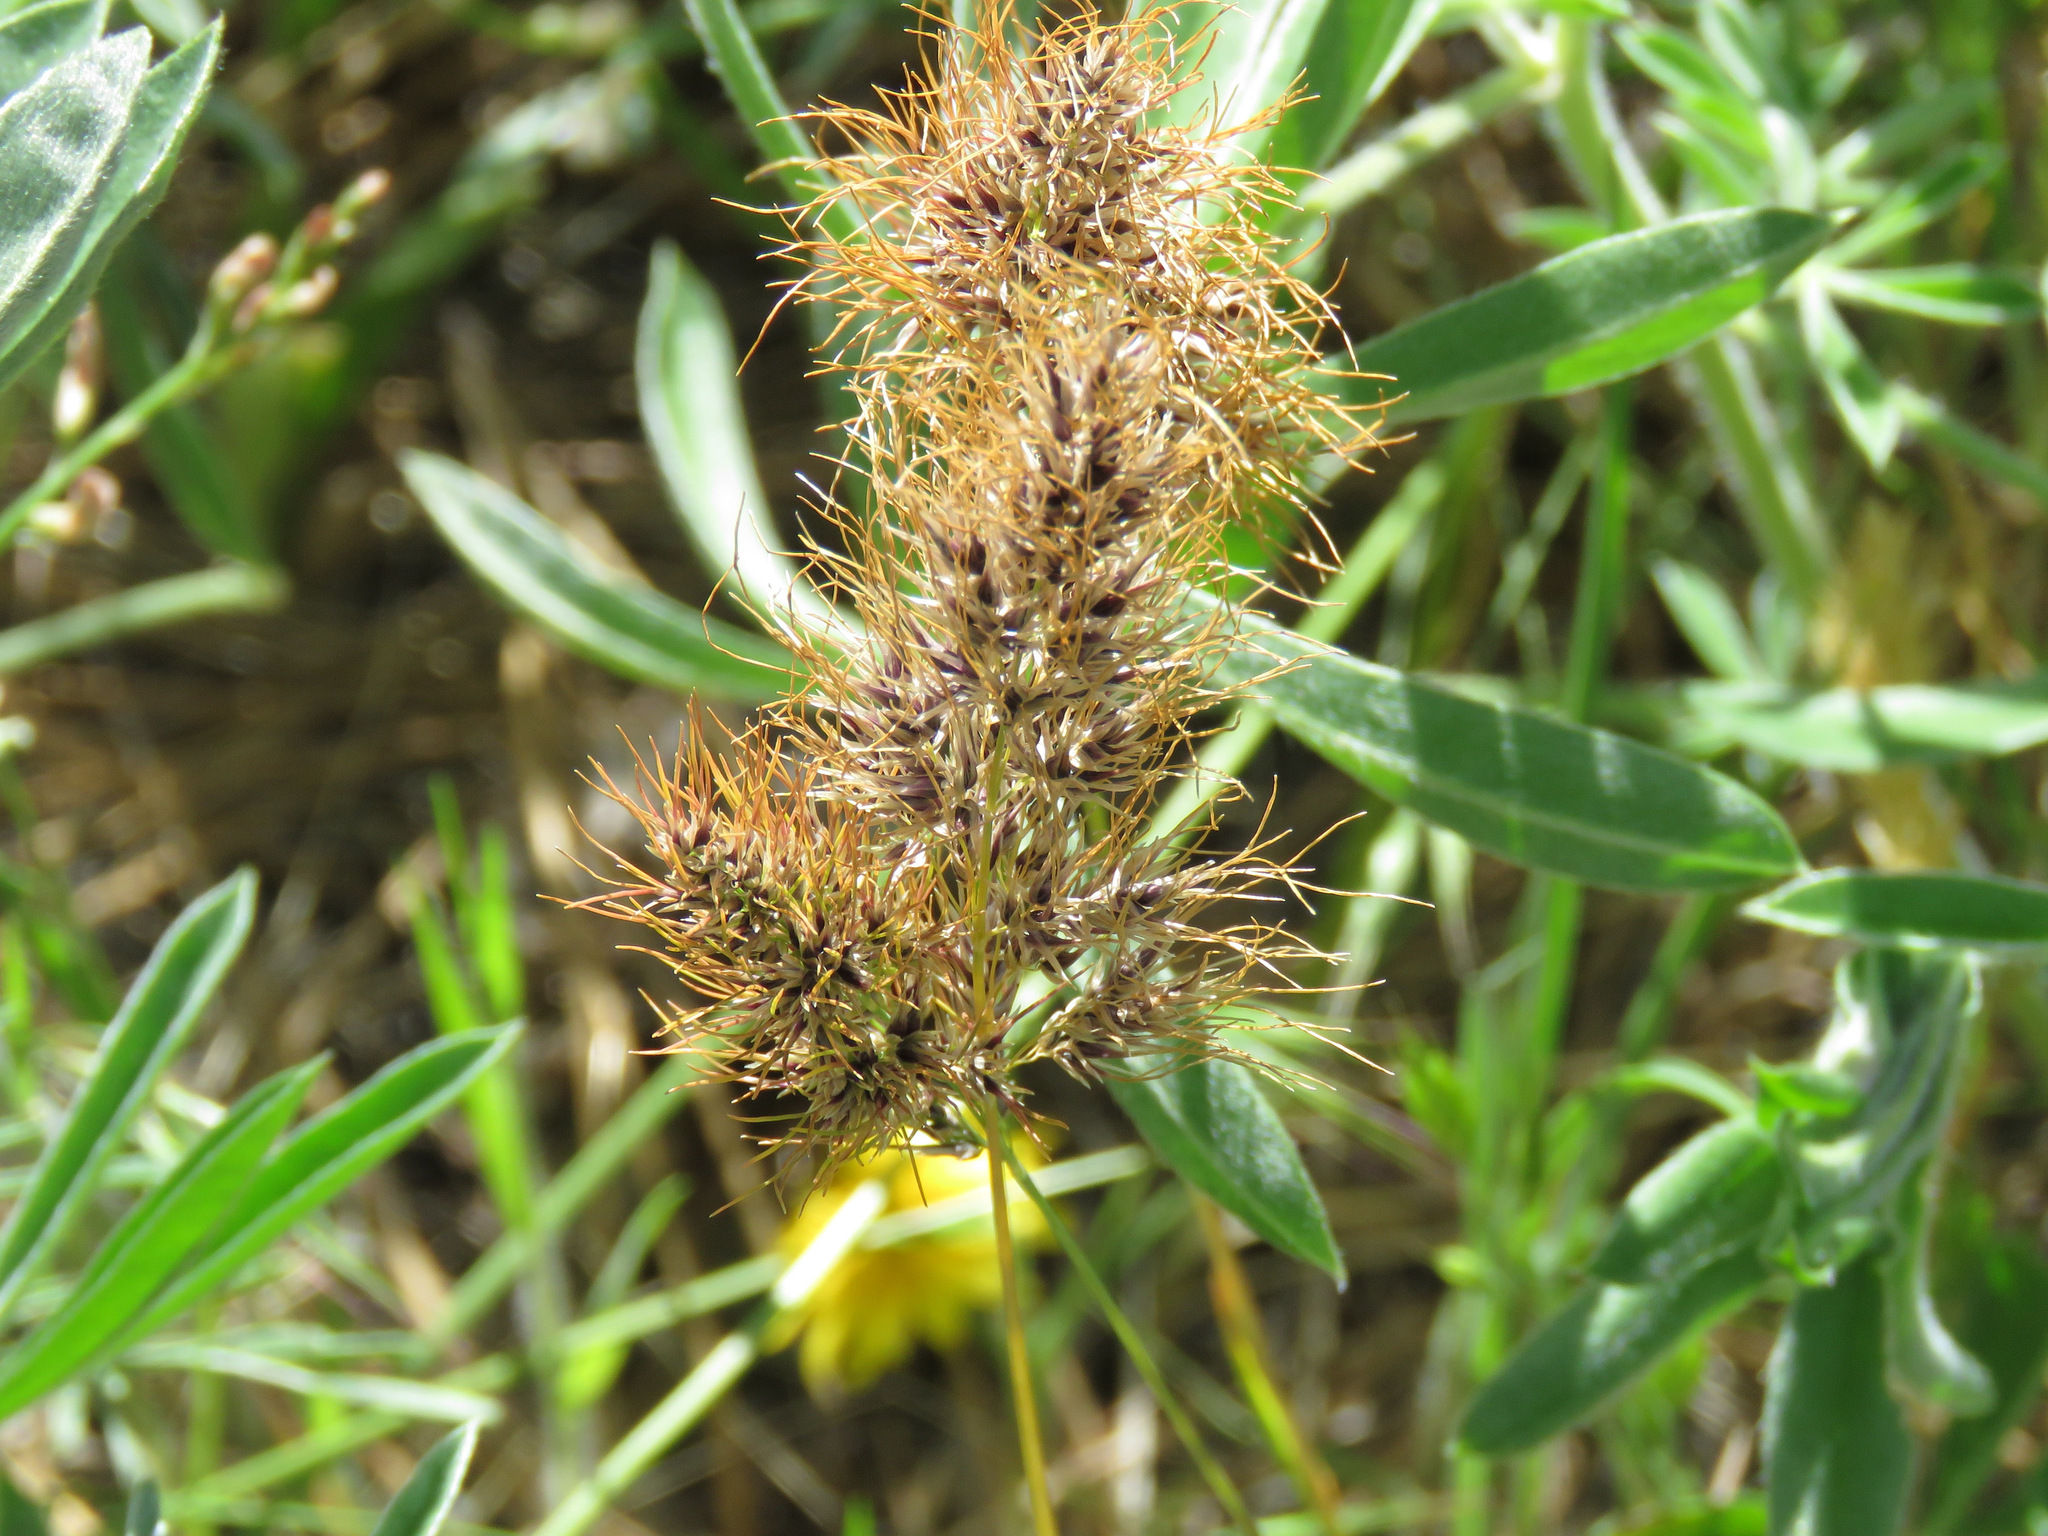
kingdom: Plantae
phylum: Tracheophyta
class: Liliopsida
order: Poales
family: Poaceae
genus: Poa
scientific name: Poa bulbosa
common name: Bulbous bluegrass
